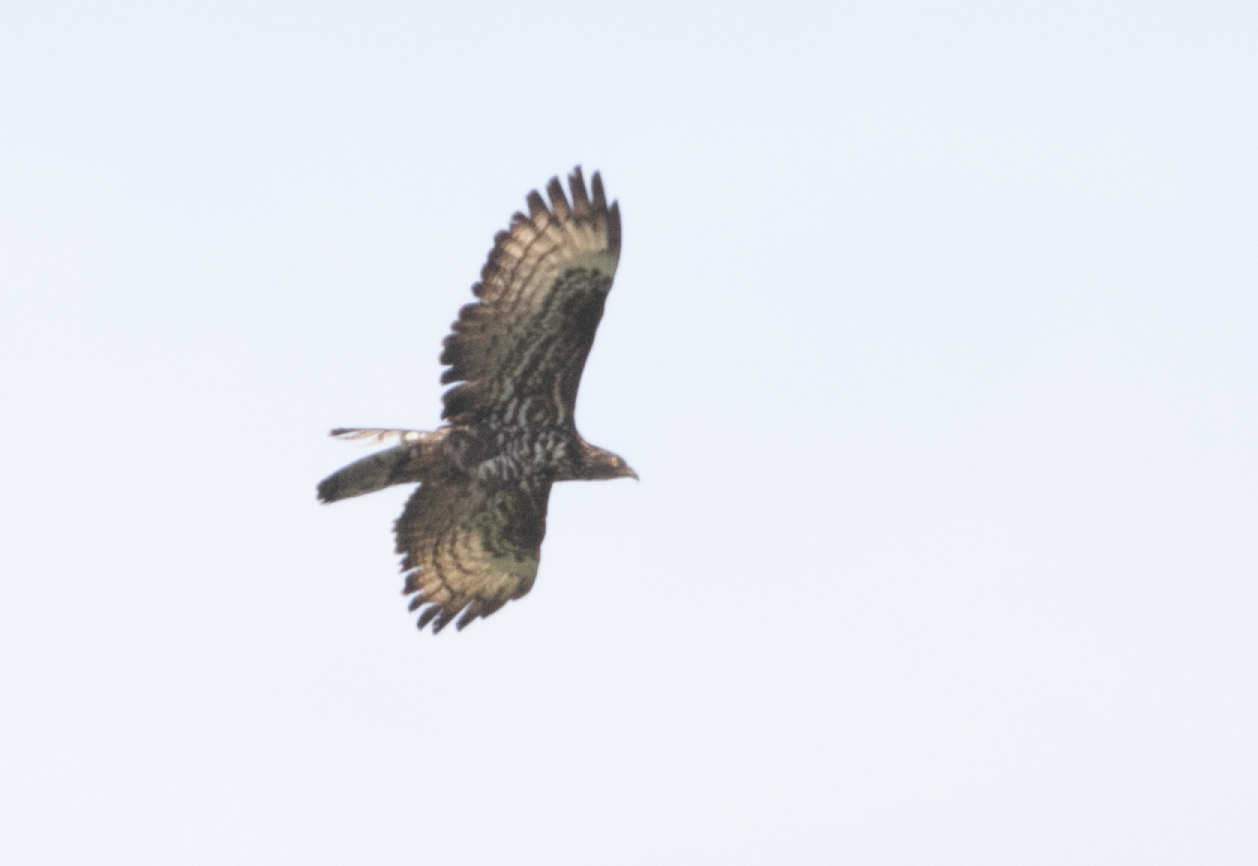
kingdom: Animalia
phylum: Chordata
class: Aves
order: Accipitriformes
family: Accipitridae
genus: Pernis
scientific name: Pernis apivorus
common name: European honey buzzard
